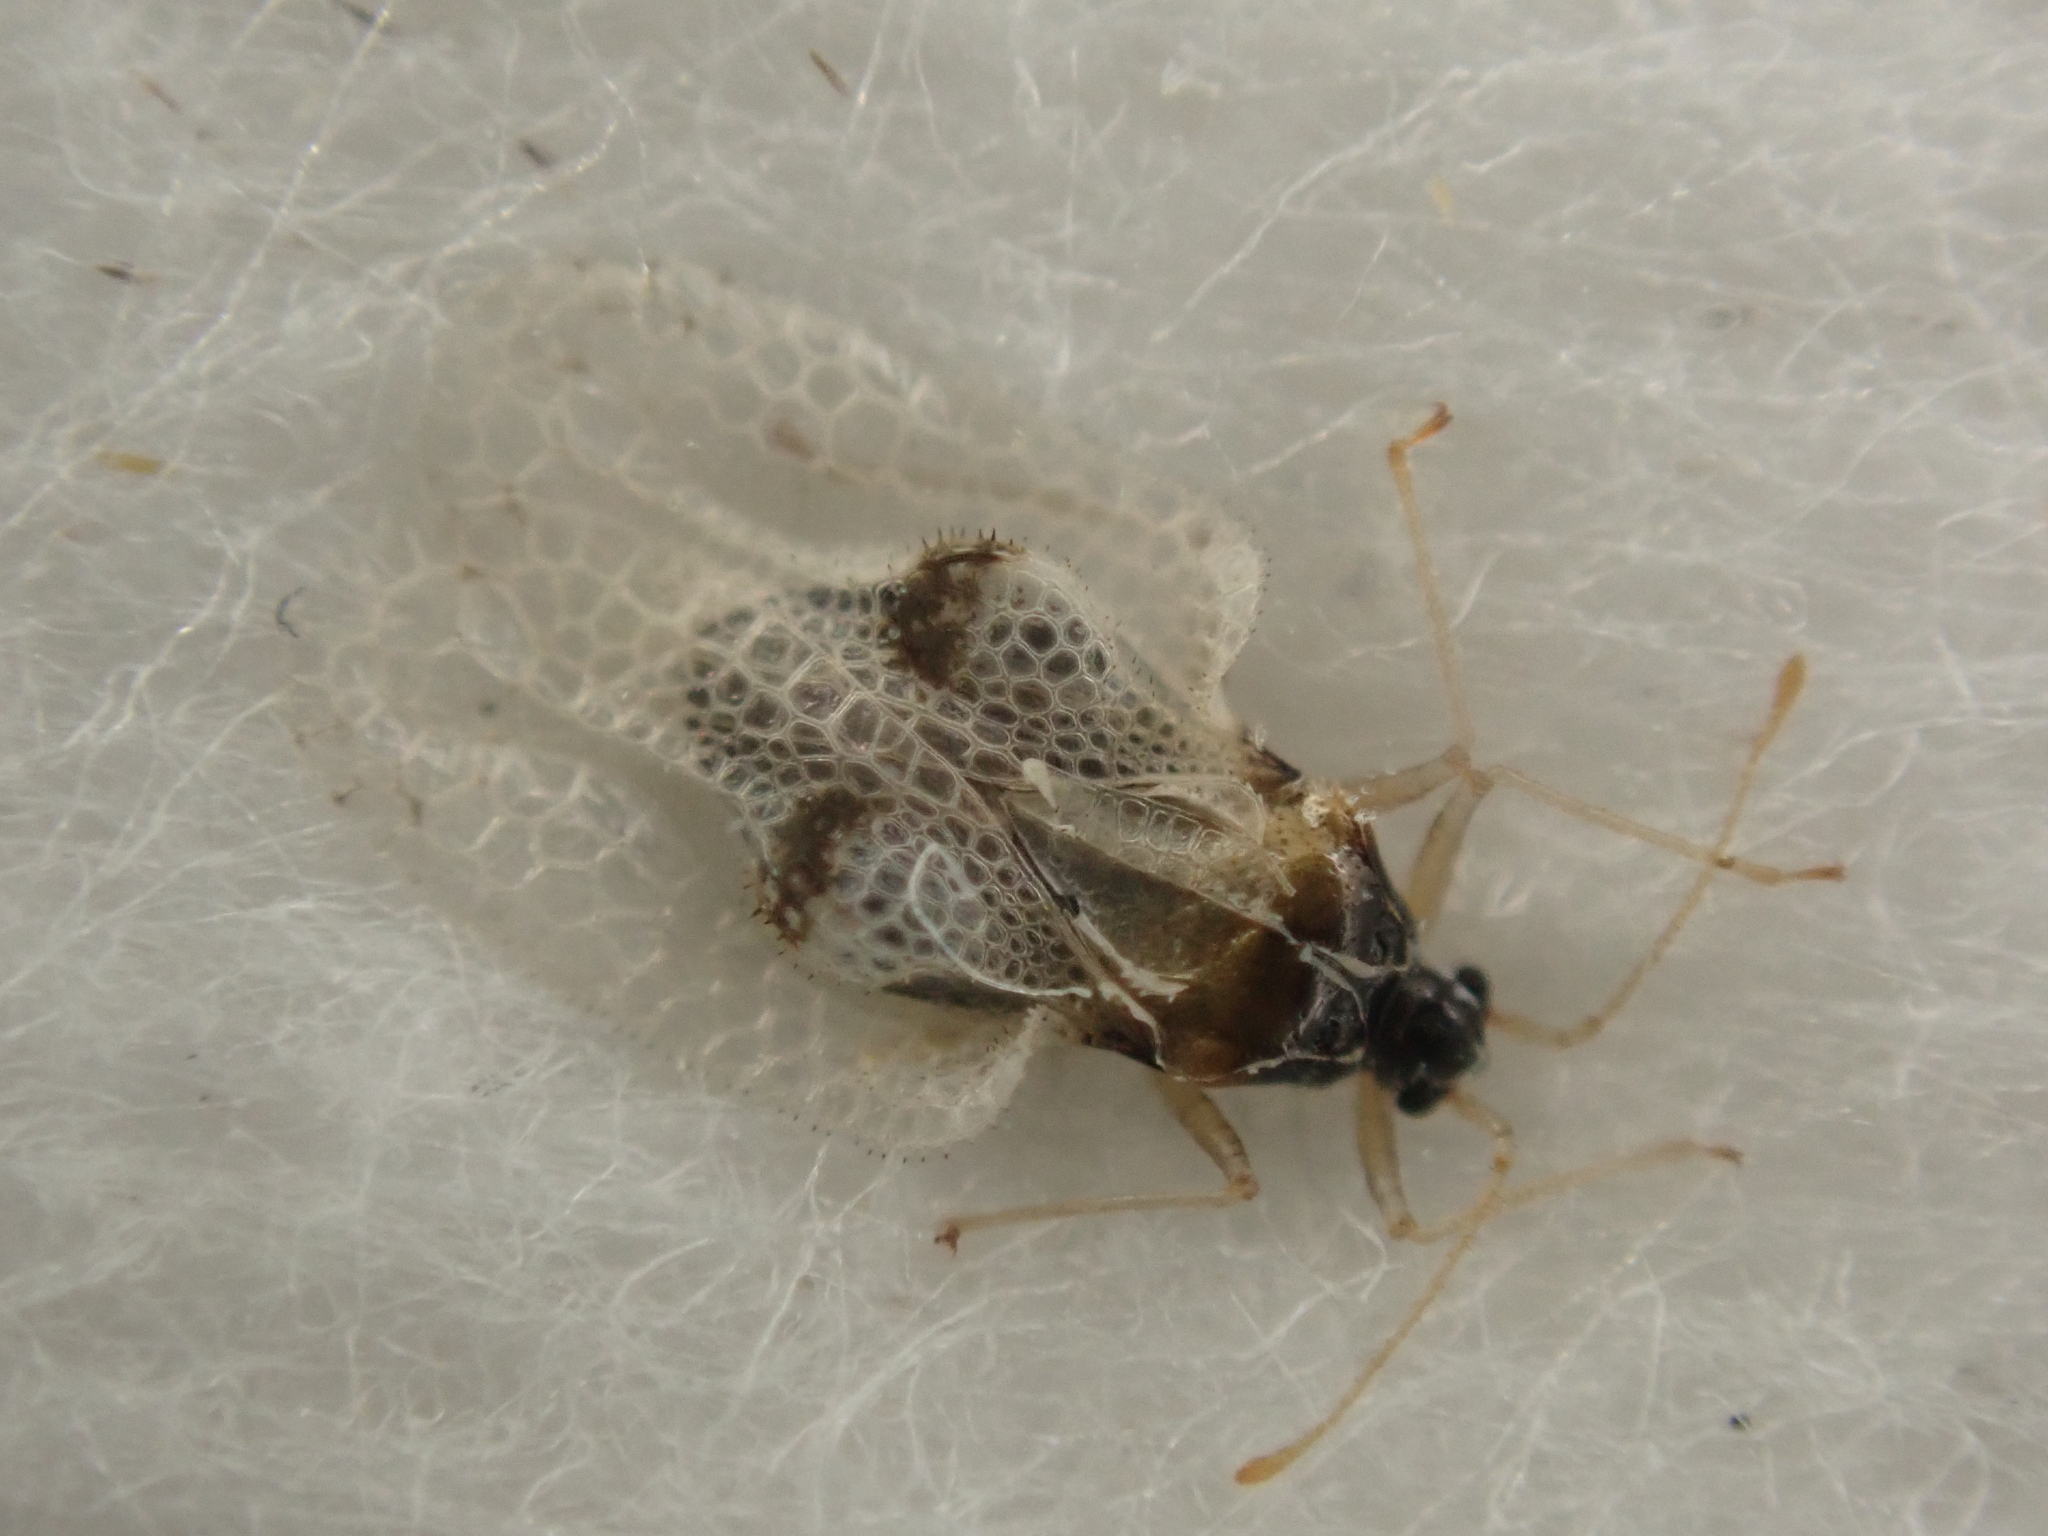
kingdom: Animalia
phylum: Arthropoda
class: Insecta
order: Hemiptera
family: Tingidae
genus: Corythucha
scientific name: Corythucha ciliata
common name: Sycamore lace bug
